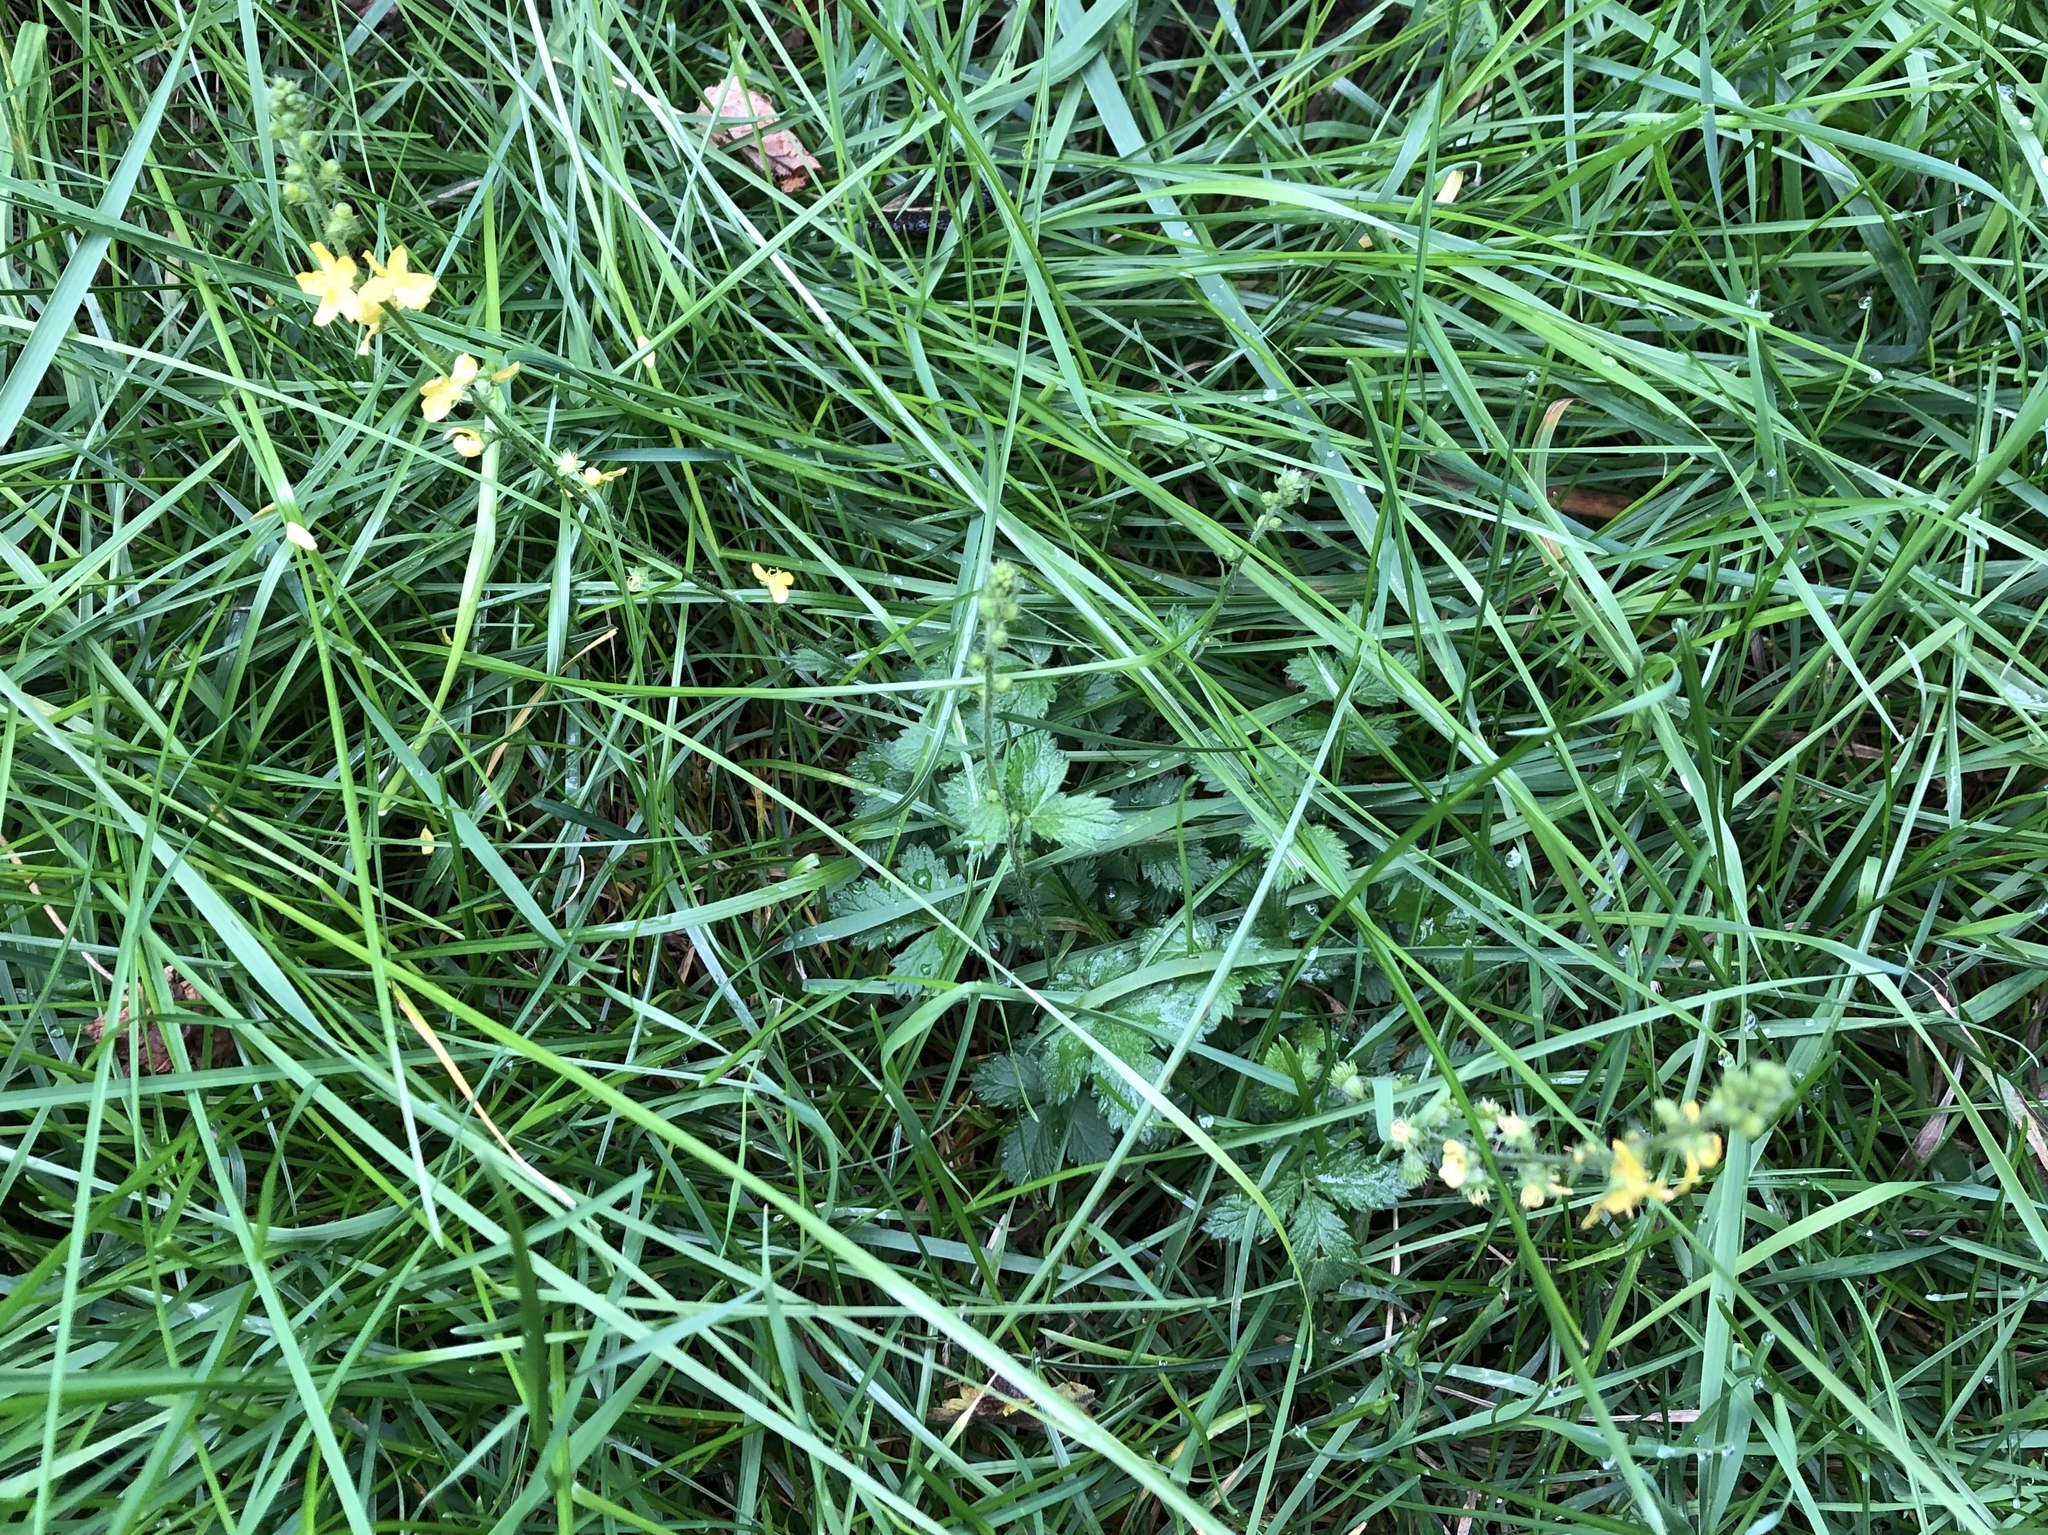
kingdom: Plantae
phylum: Tracheophyta
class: Magnoliopsida
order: Rosales
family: Rosaceae
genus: Agrimonia
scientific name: Agrimonia eupatoria
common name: Agrimony
